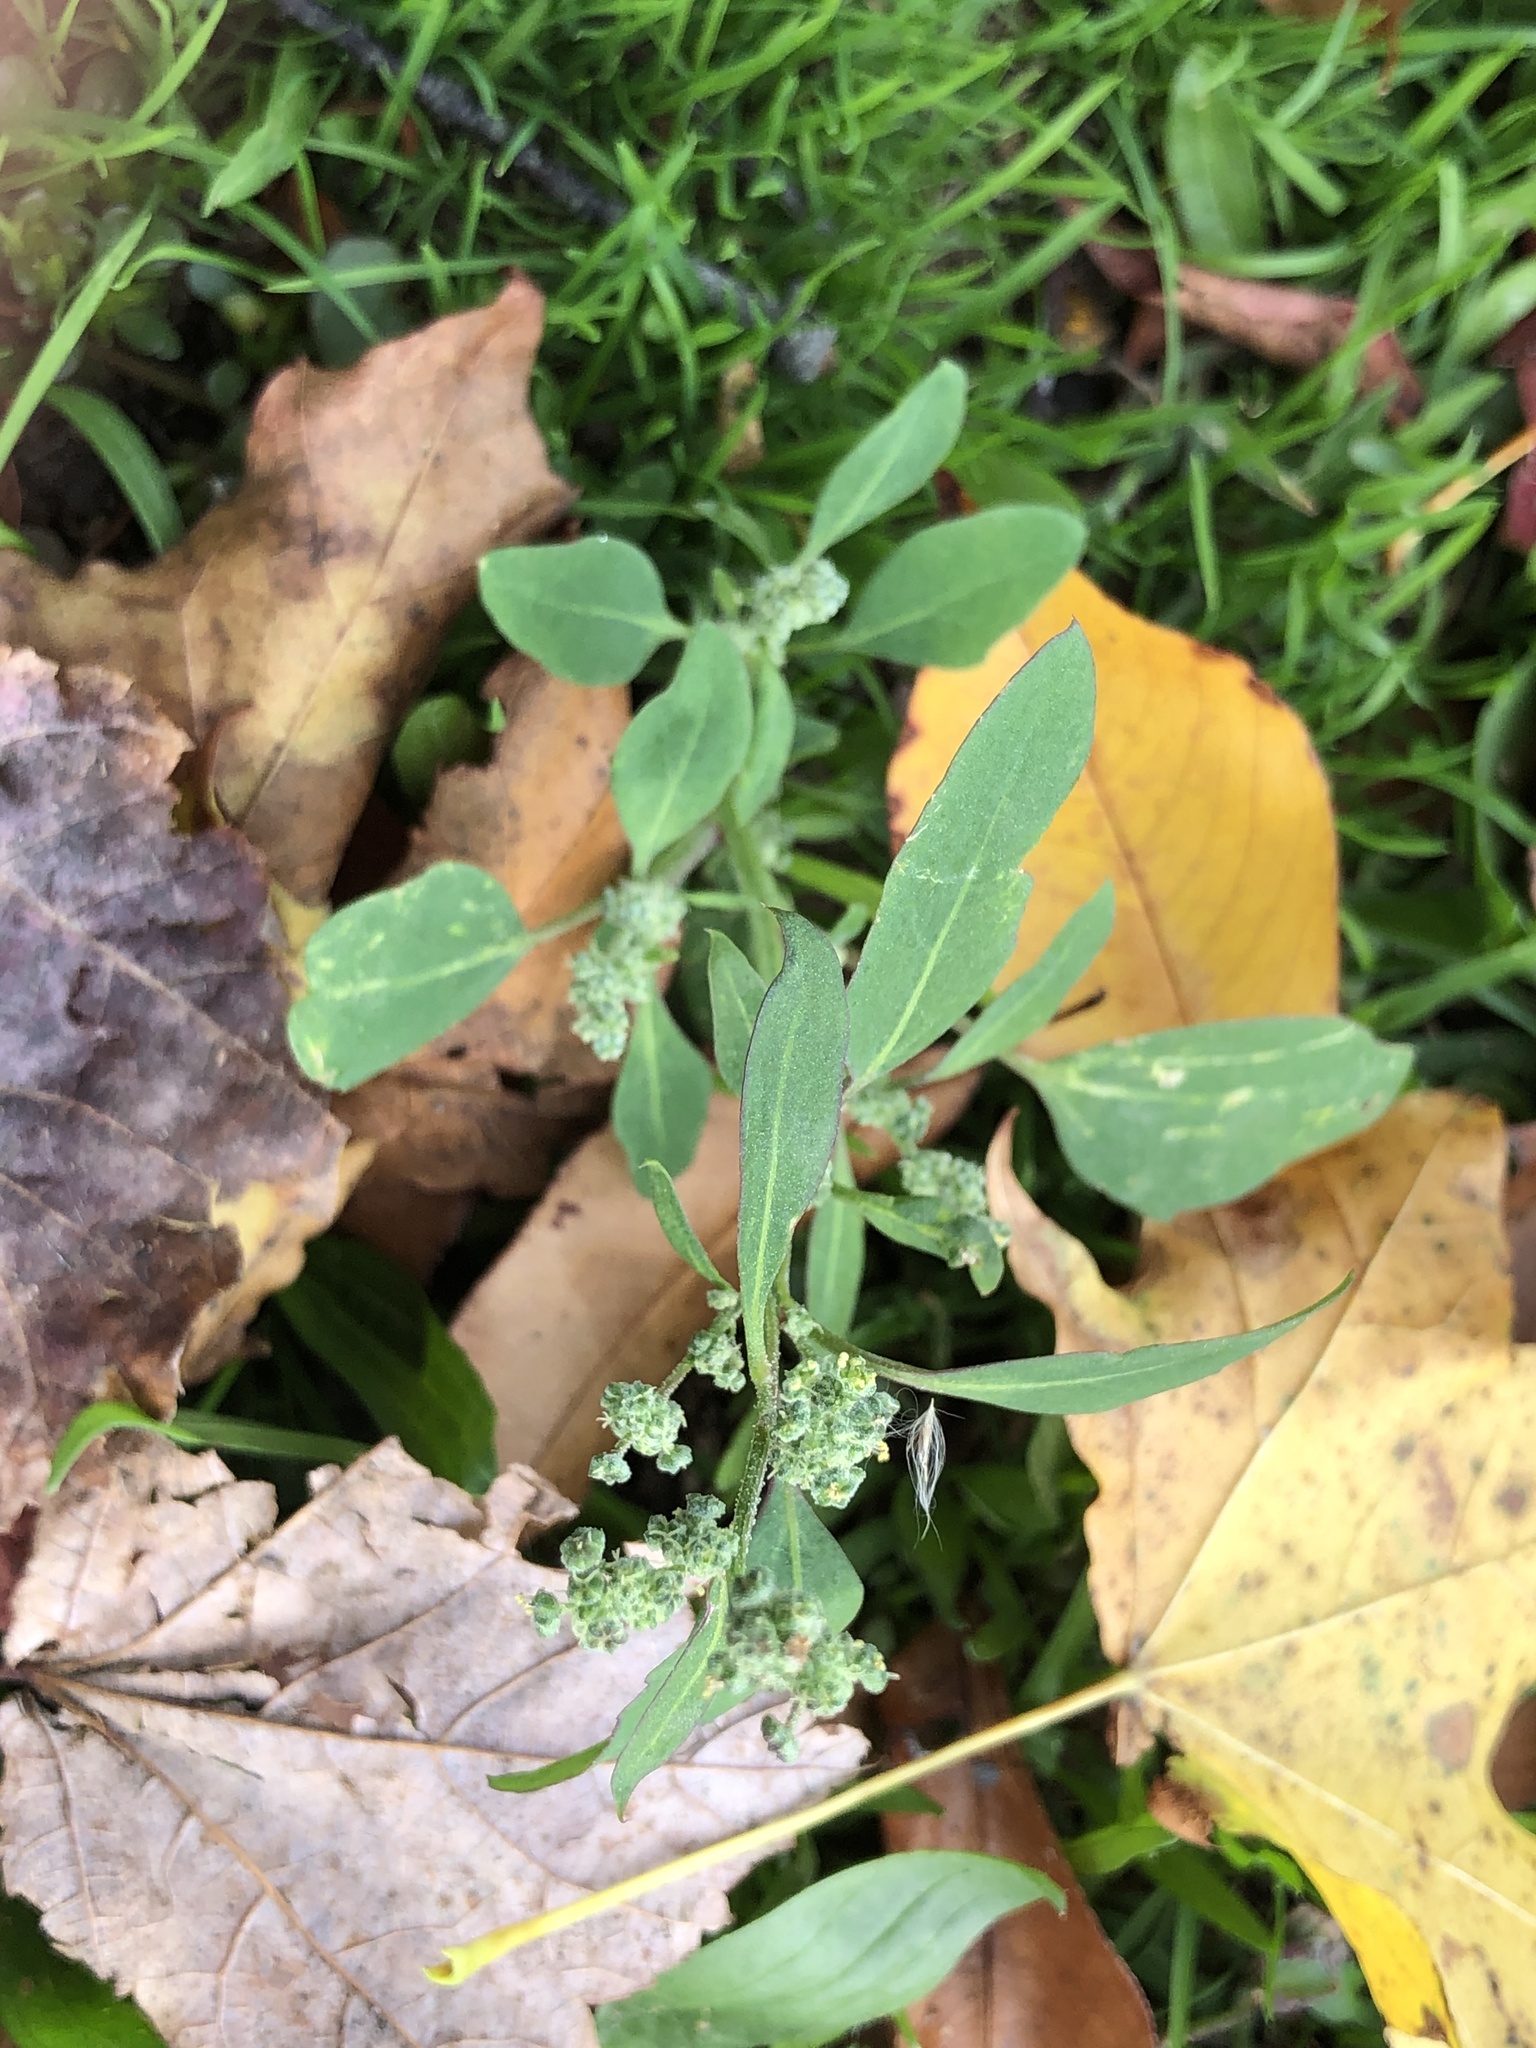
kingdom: Plantae
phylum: Tracheophyta
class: Magnoliopsida
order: Caryophyllales
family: Amaranthaceae
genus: Chenopodium
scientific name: Chenopodium album
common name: Fat-hen
